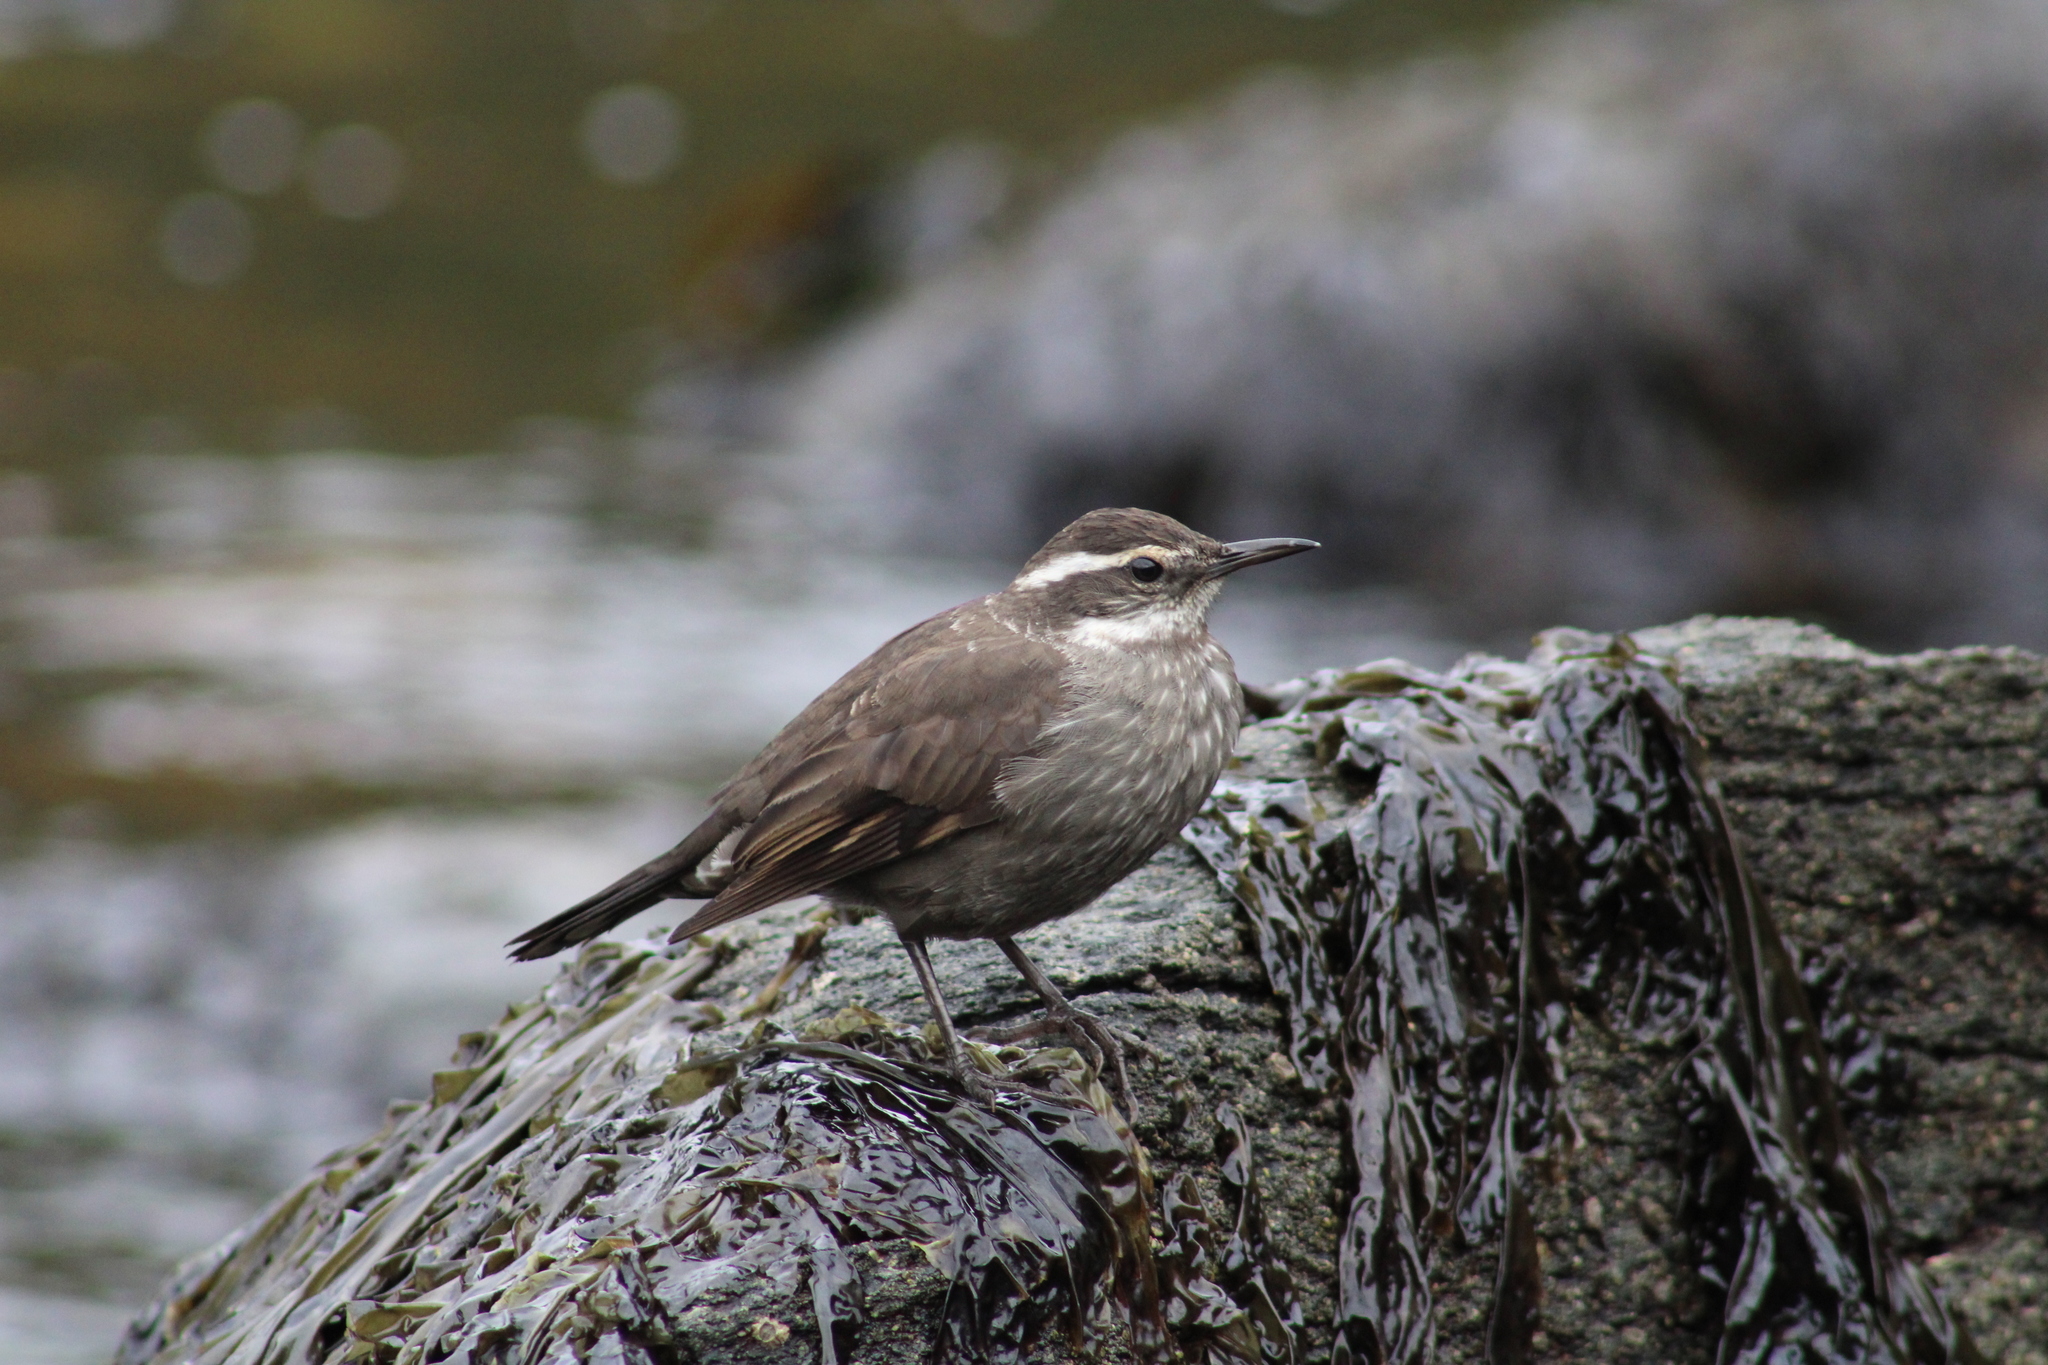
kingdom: Animalia
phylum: Chordata
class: Aves
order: Passeriformes
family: Furnariidae
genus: Cinclodes
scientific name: Cinclodes patagonicus
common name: Dark-bellied cinclodes
